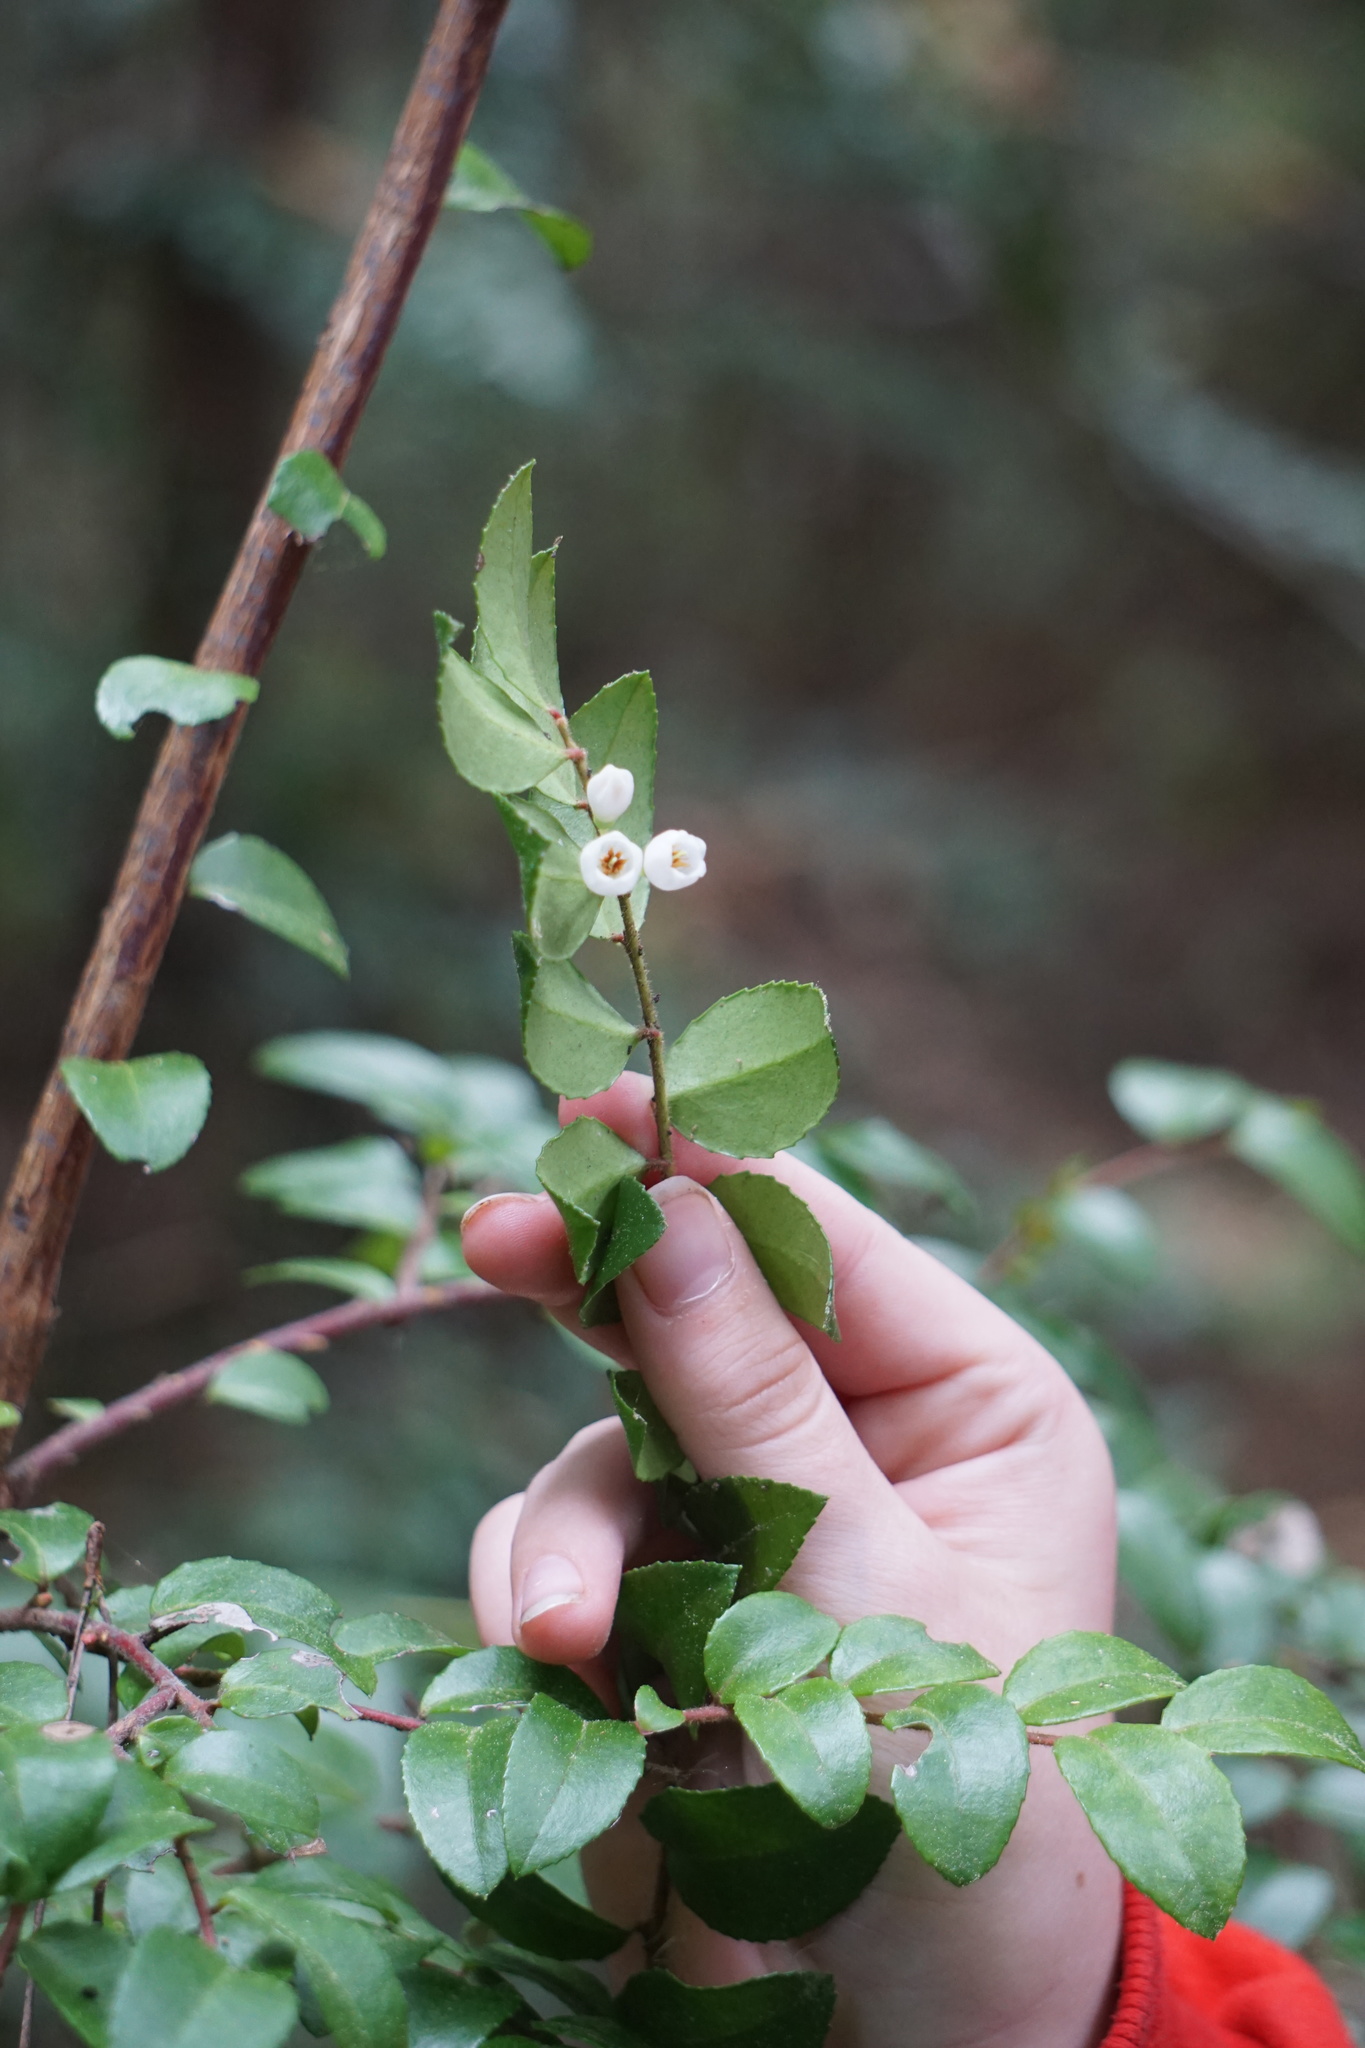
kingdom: Plantae
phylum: Tracheophyta
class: Magnoliopsida
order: Ericales
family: Ericaceae
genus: Vaccinium
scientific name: Vaccinium ovatum
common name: California-huckleberry
